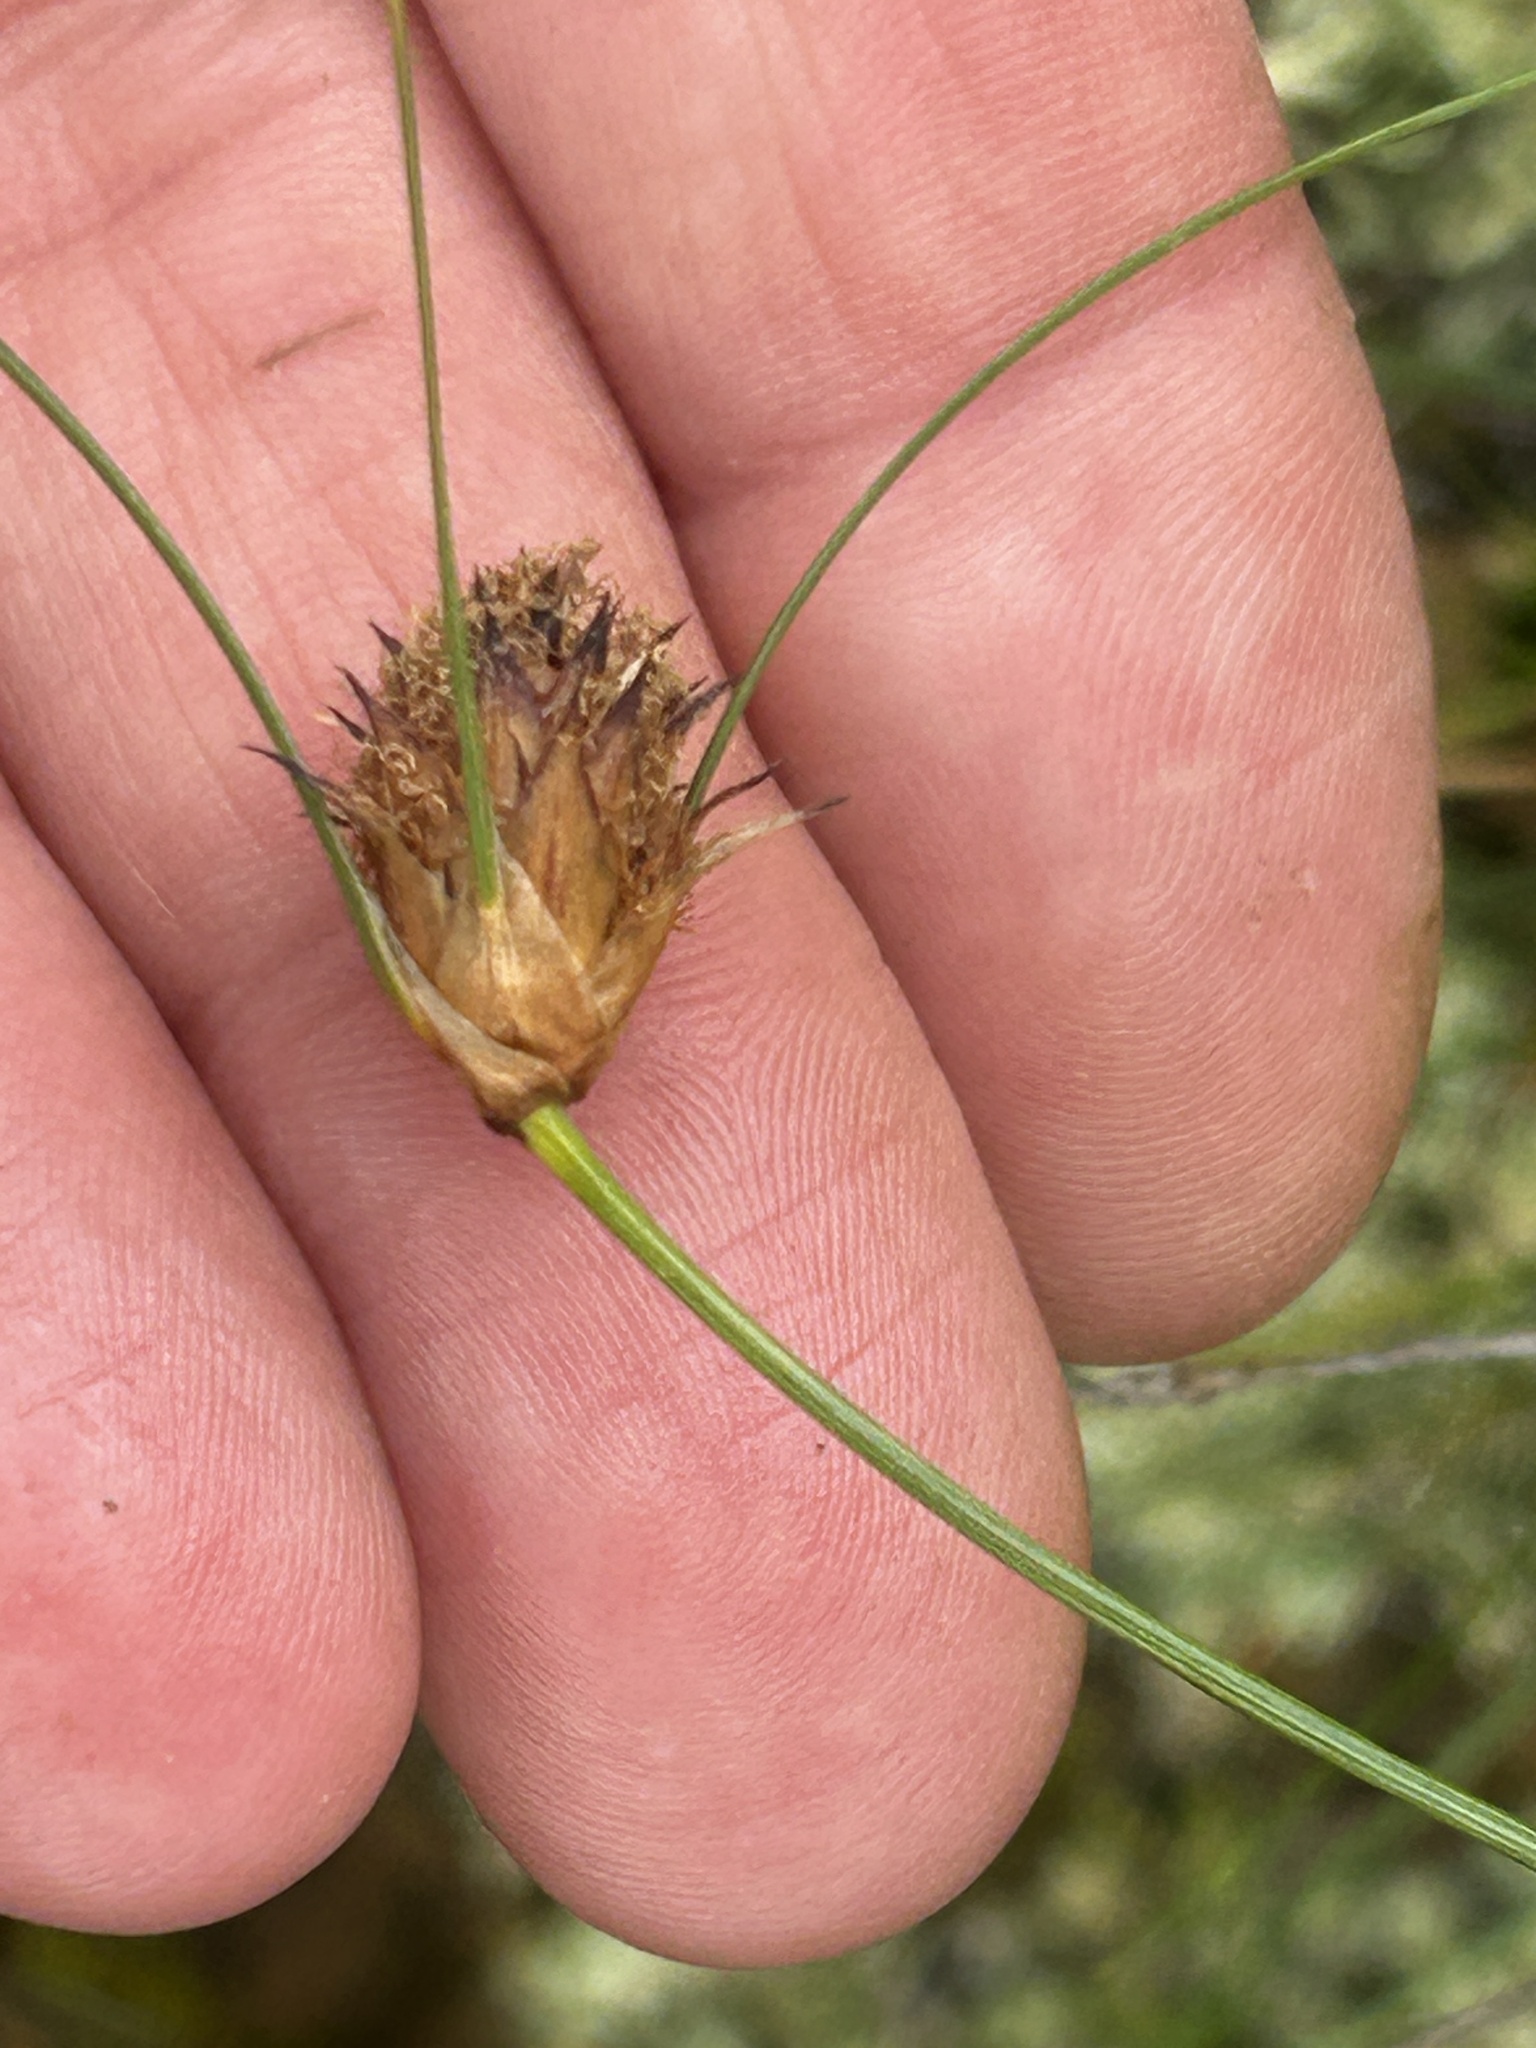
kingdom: Plantae
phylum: Tracheophyta
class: Liliopsida
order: Poales
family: Cyperaceae
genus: Ficinia
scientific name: Ficinia nigrescens
